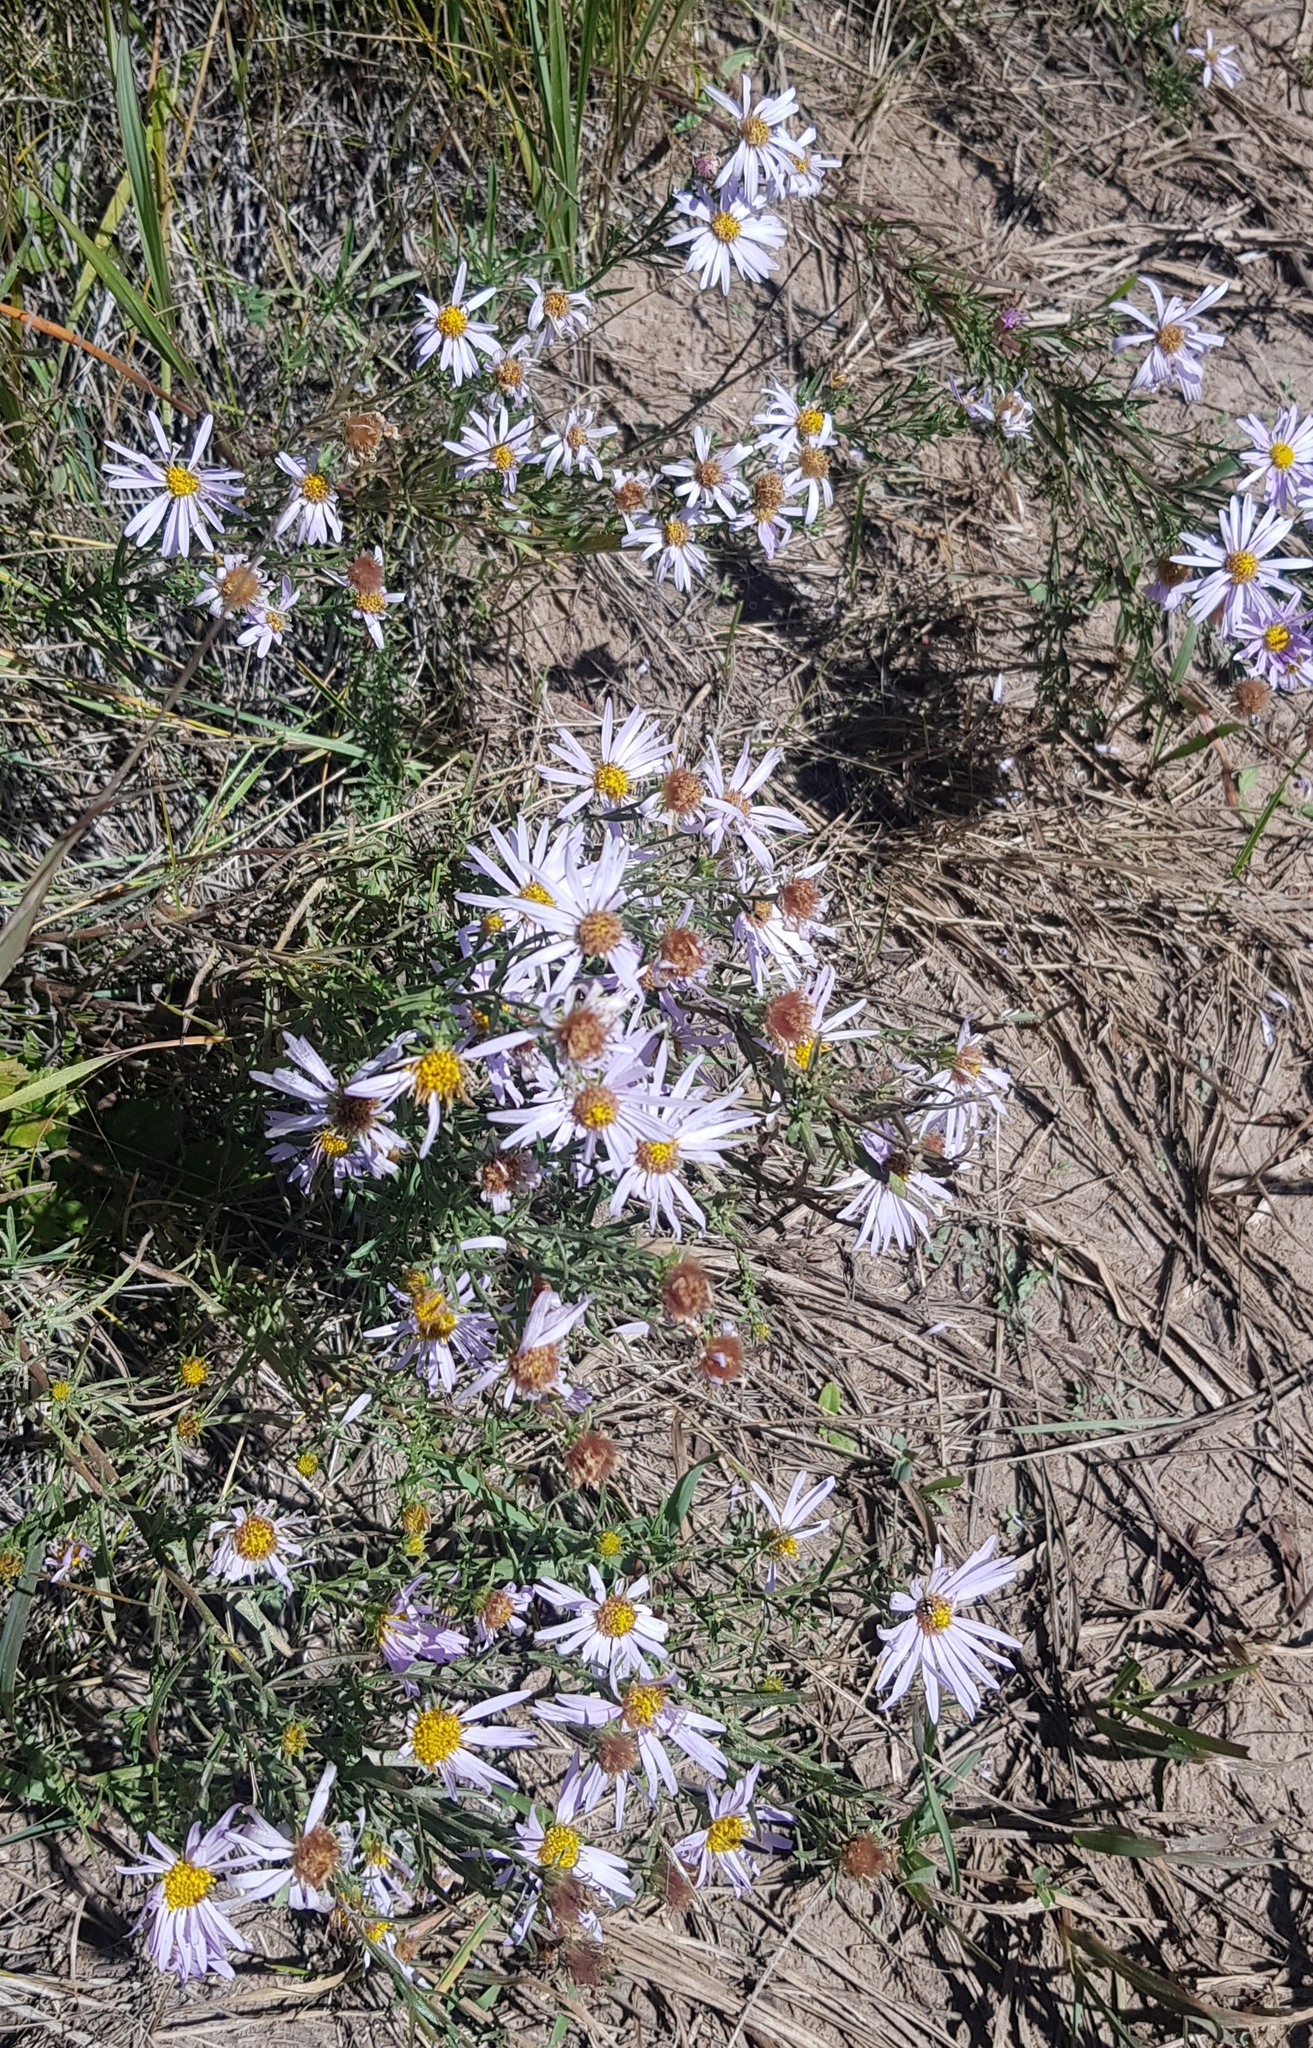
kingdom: Plantae
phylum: Tracheophyta
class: Magnoliopsida
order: Asterales
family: Asteraceae
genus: Heteropappus
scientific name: Heteropappus altaicus
